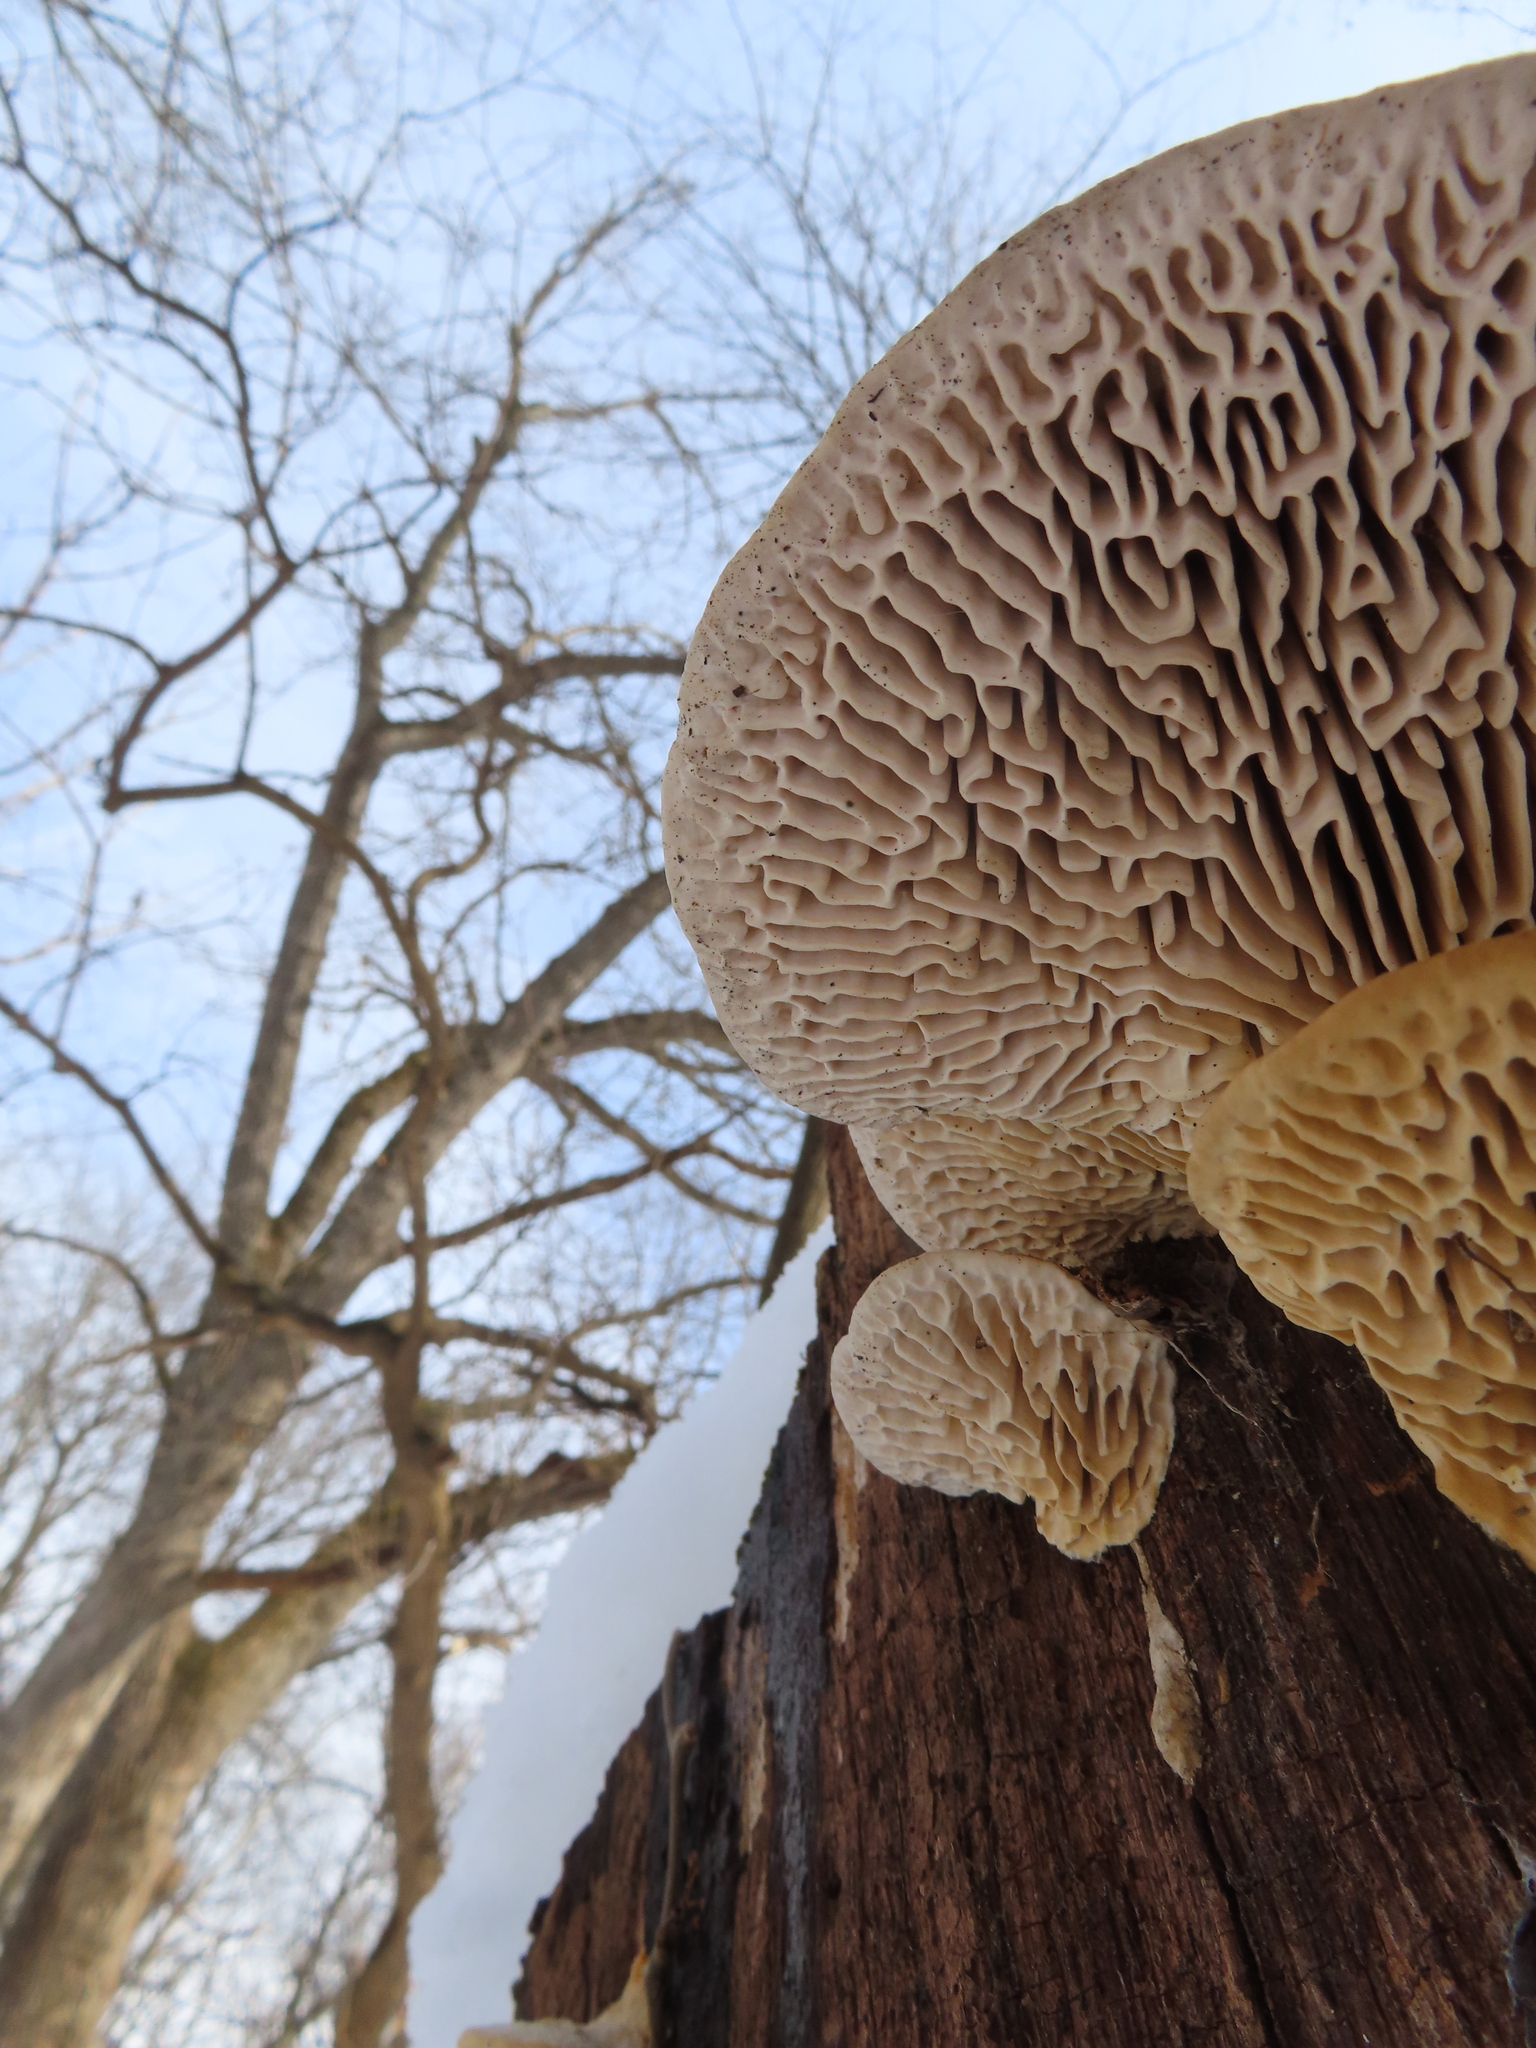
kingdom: Fungi
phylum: Basidiomycota
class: Agaricomycetes
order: Polyporales
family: Fomitopsidaceae
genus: Fomitopsis
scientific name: Fomitopsis
